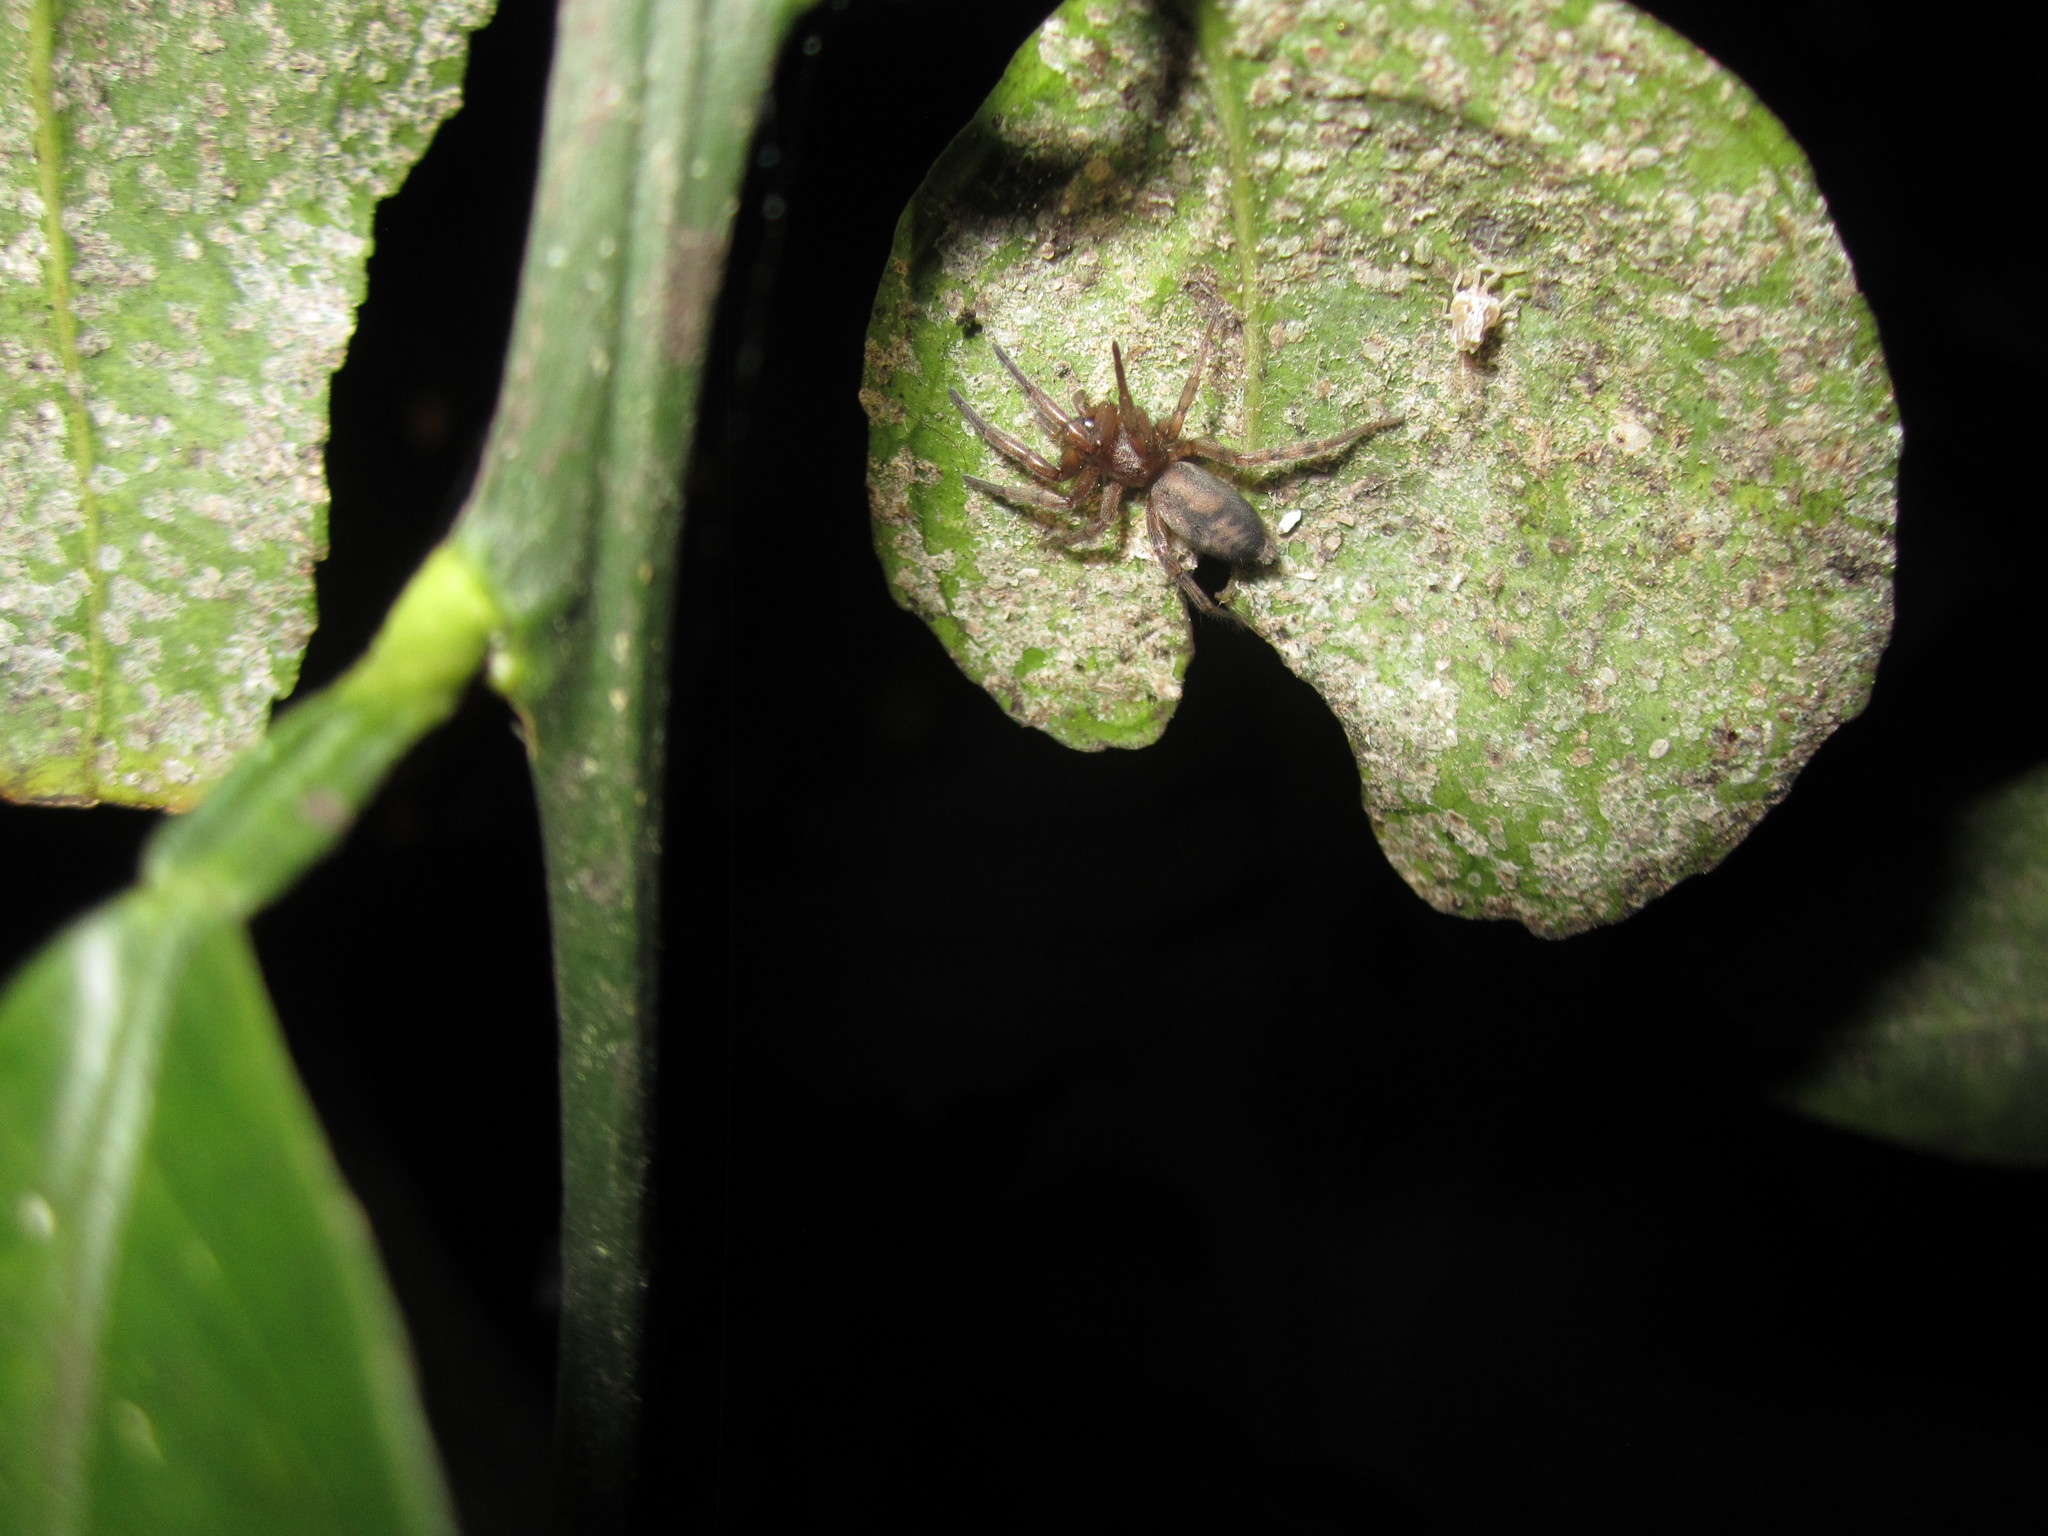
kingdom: Animalia
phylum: Arthropoda
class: Arachnida
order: Araneae
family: Gnaphosidae
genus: Intruda
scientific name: Intruda signata
